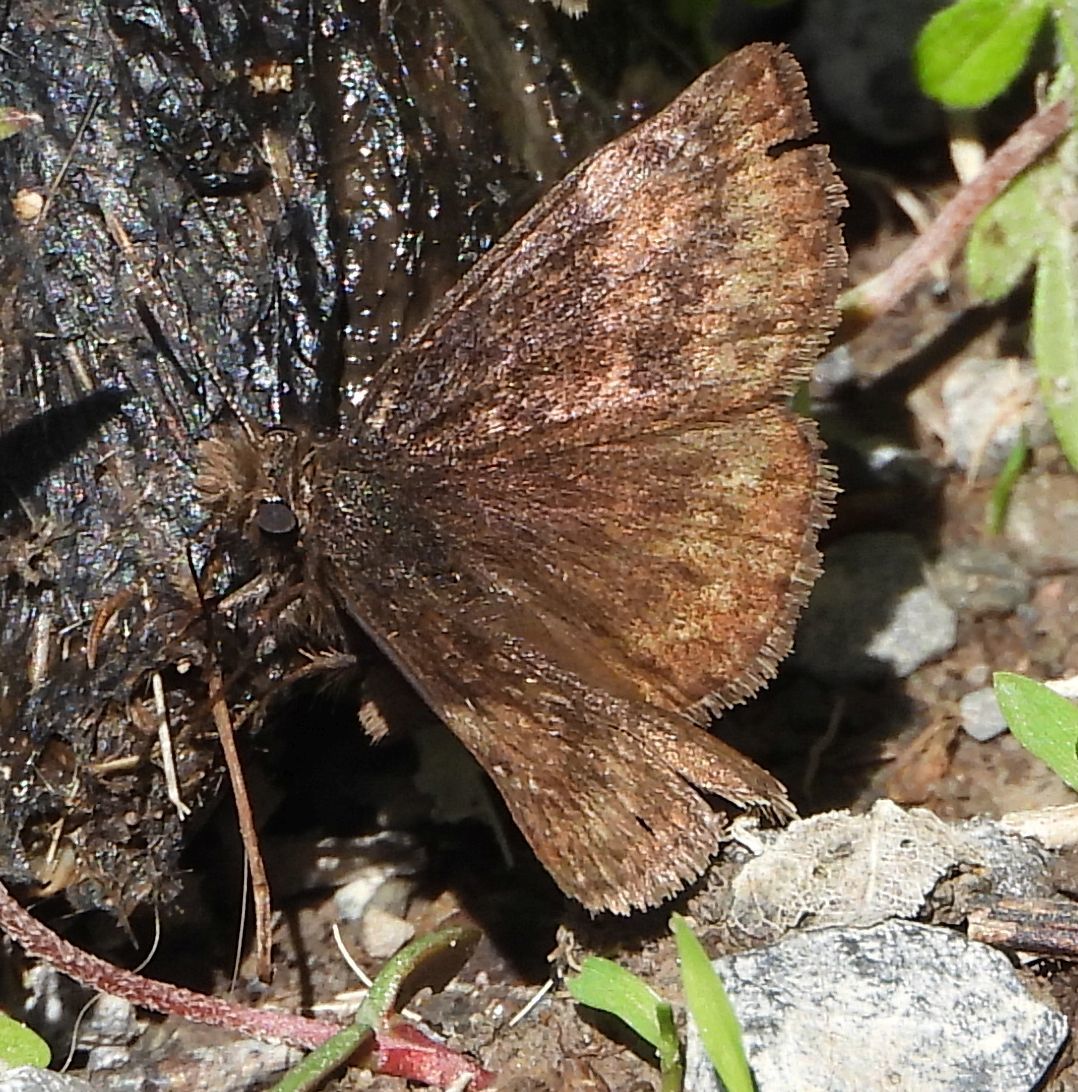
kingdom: Animalia
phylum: Arthropoda
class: Insecta
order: Lepidoptera
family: Hesperiidae
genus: Erynnis
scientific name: Erynnis lucilius
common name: Columbine duskywing
